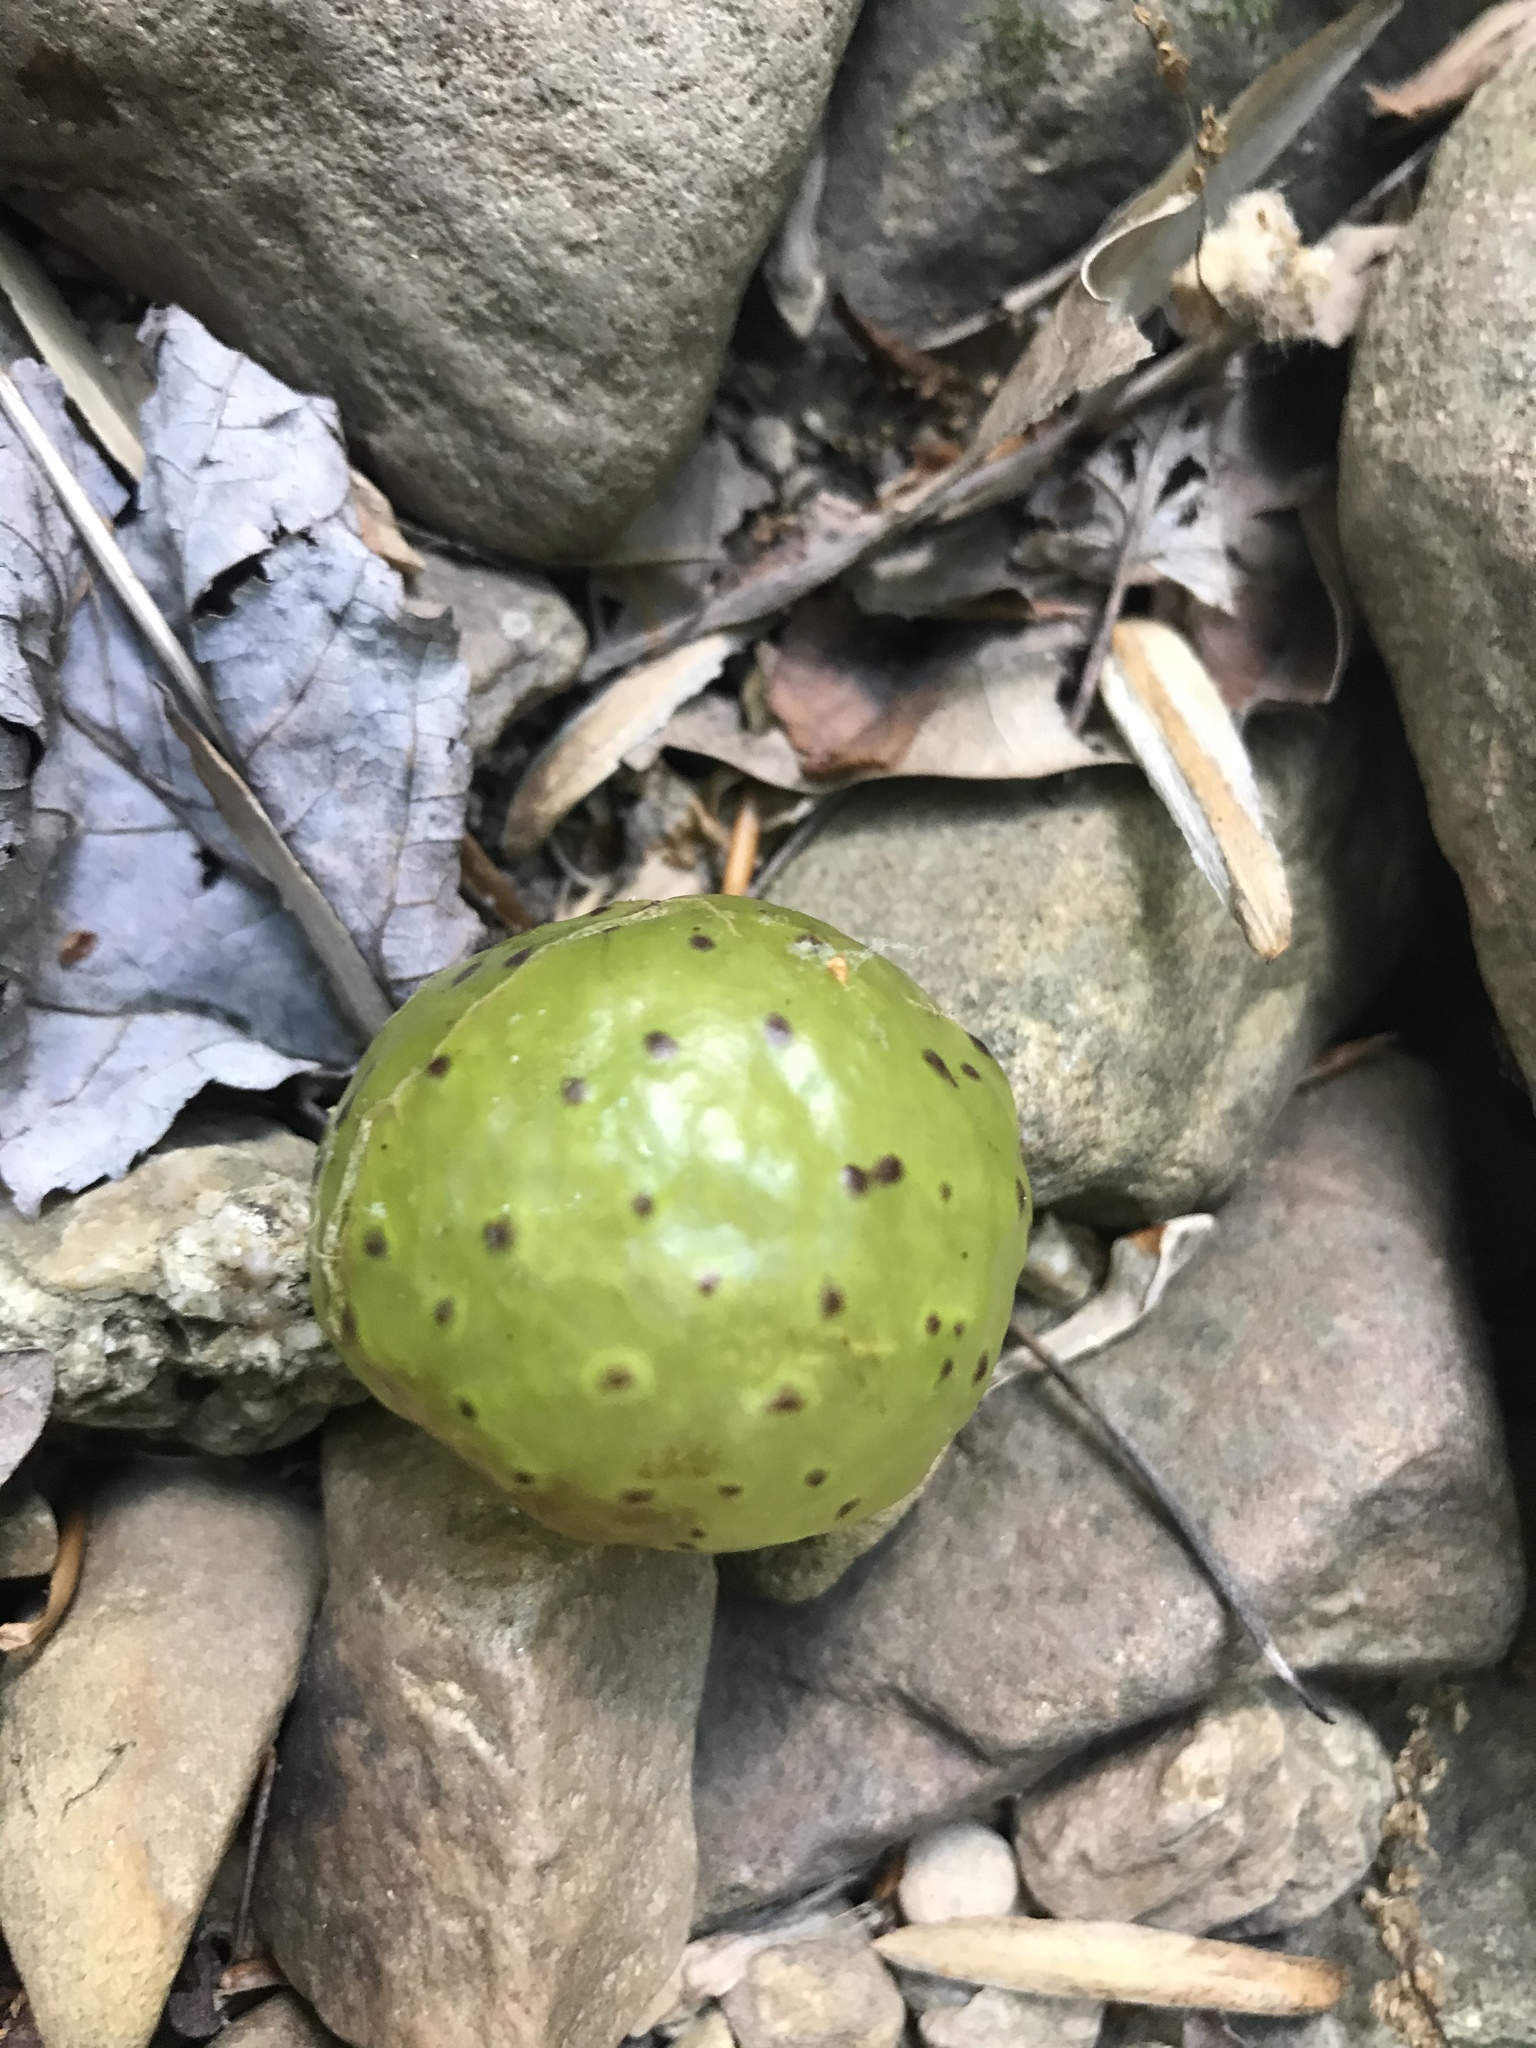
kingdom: Animalia
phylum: Arthropoda
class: Insecta
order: Hymenoptera
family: Cynipidae
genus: Amphibolips
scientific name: Amphibolips
